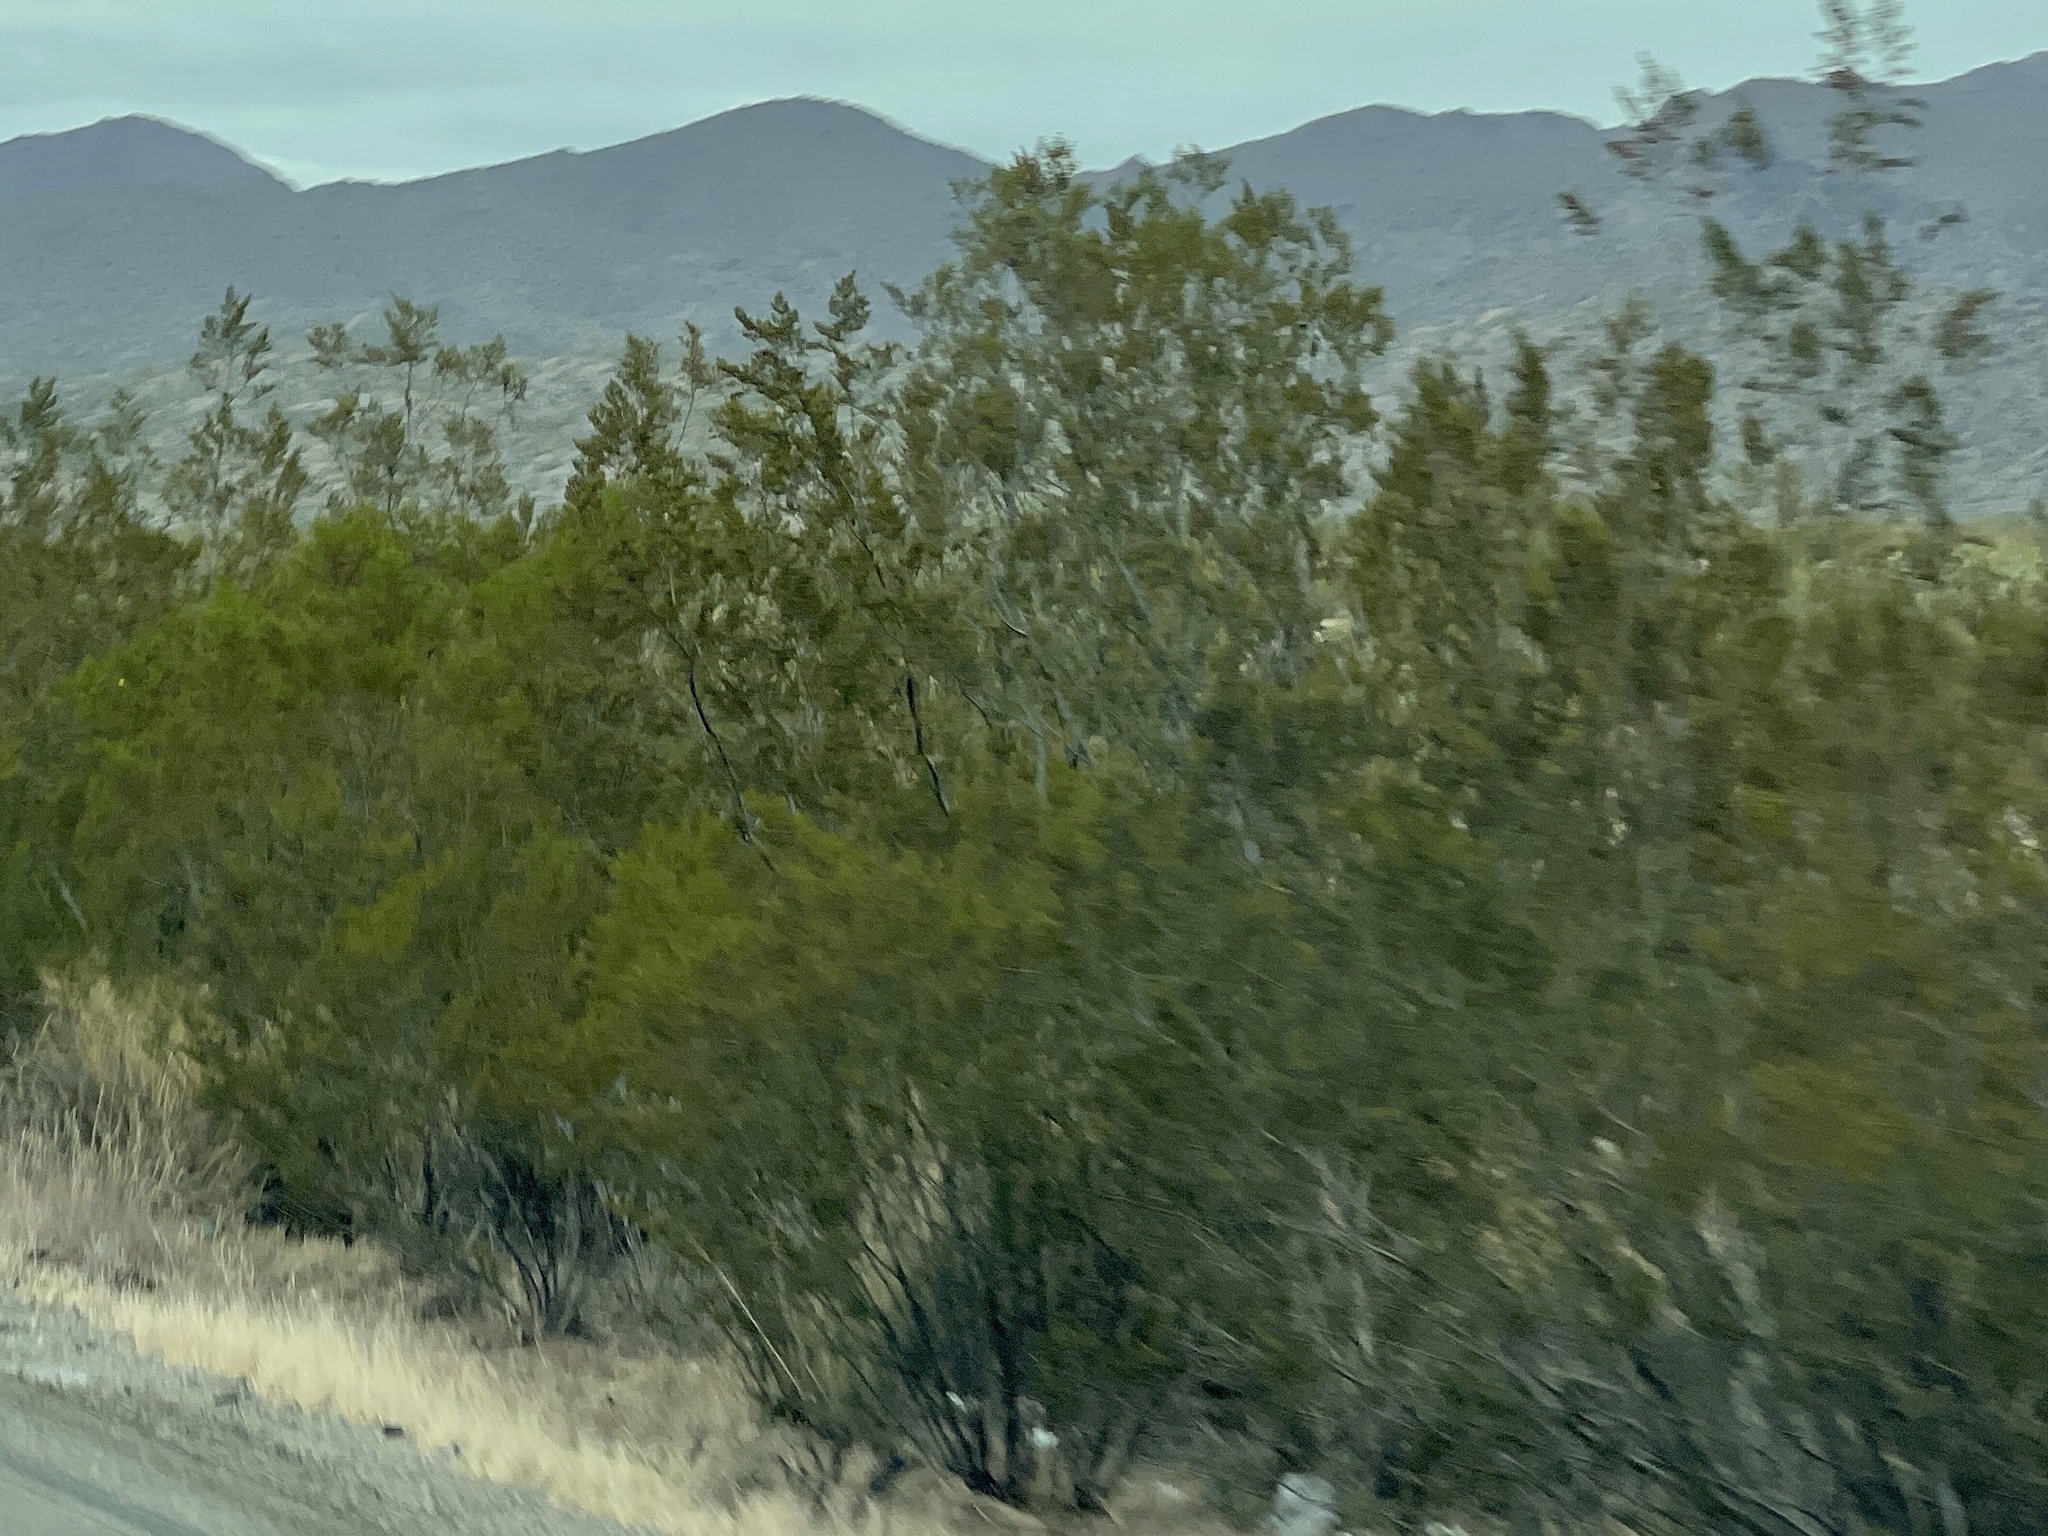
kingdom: Plantae
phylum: Tracheophyta
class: Magnoliopsida
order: Zygophyllales
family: Zygophyllaceae
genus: Larrea
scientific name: Larrea tridentata
